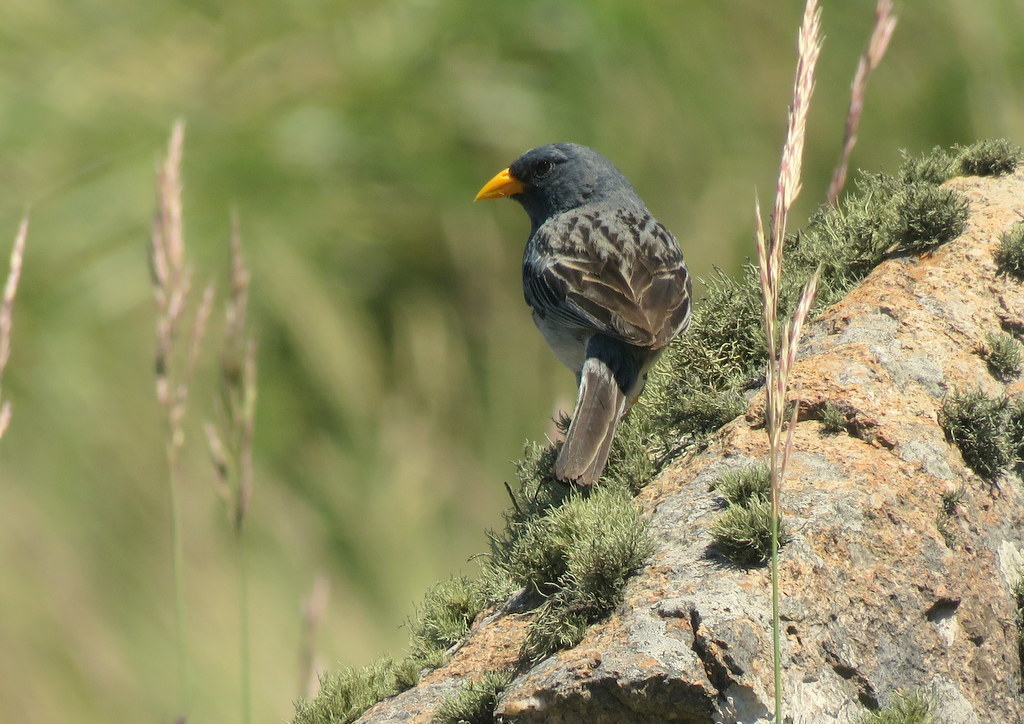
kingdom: Animalia
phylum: Chordata
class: Aves
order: Passeriformes
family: Thraupidae
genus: Porphyrospiza
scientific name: Porphyrospiza alaudina
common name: Band-tailed sierra finch
